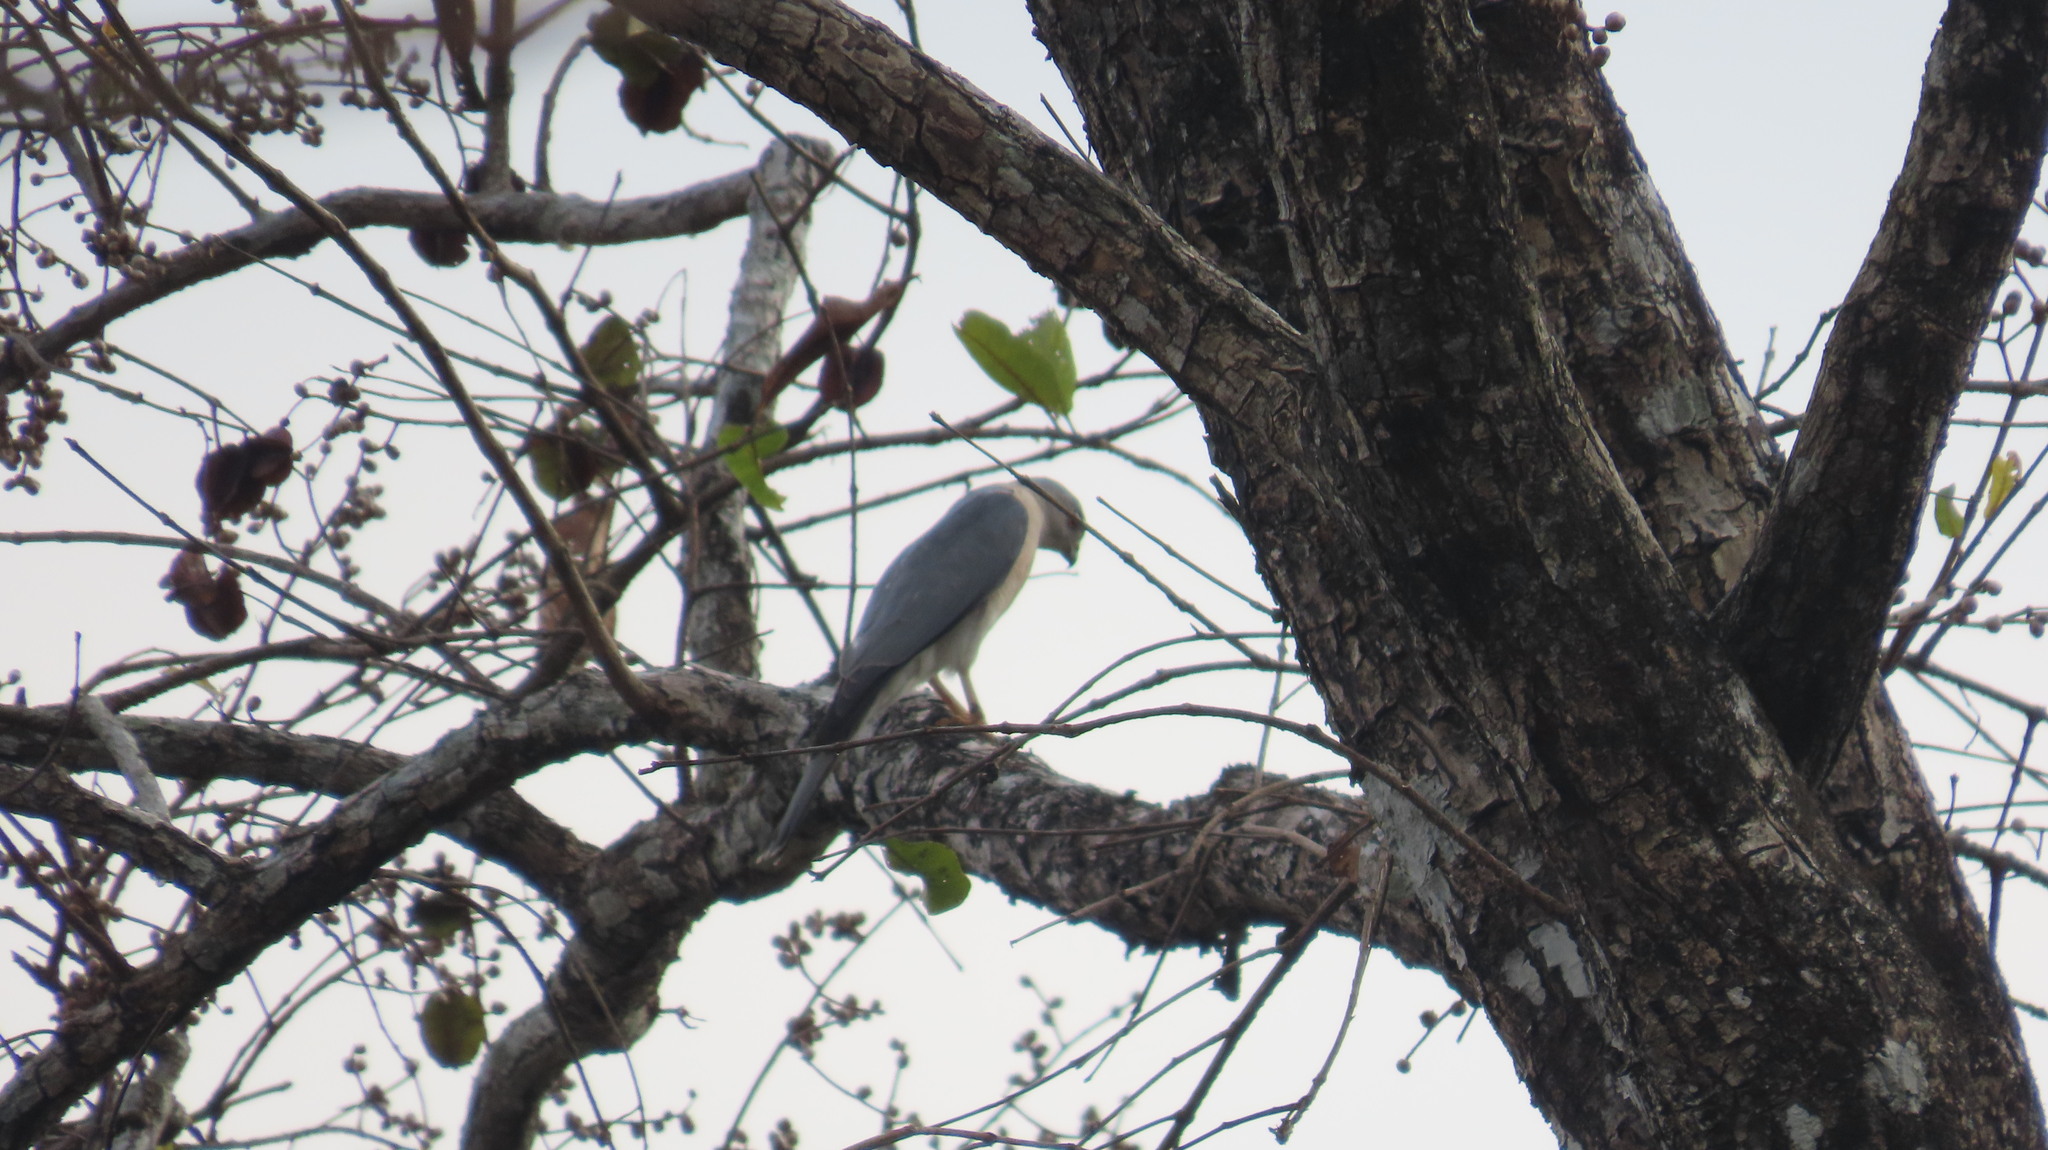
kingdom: Animalia
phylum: Chordata
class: Aves
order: Accipitriformes
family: Accipitridae
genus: Accipiter
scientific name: Accipiter badius
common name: Shikra
